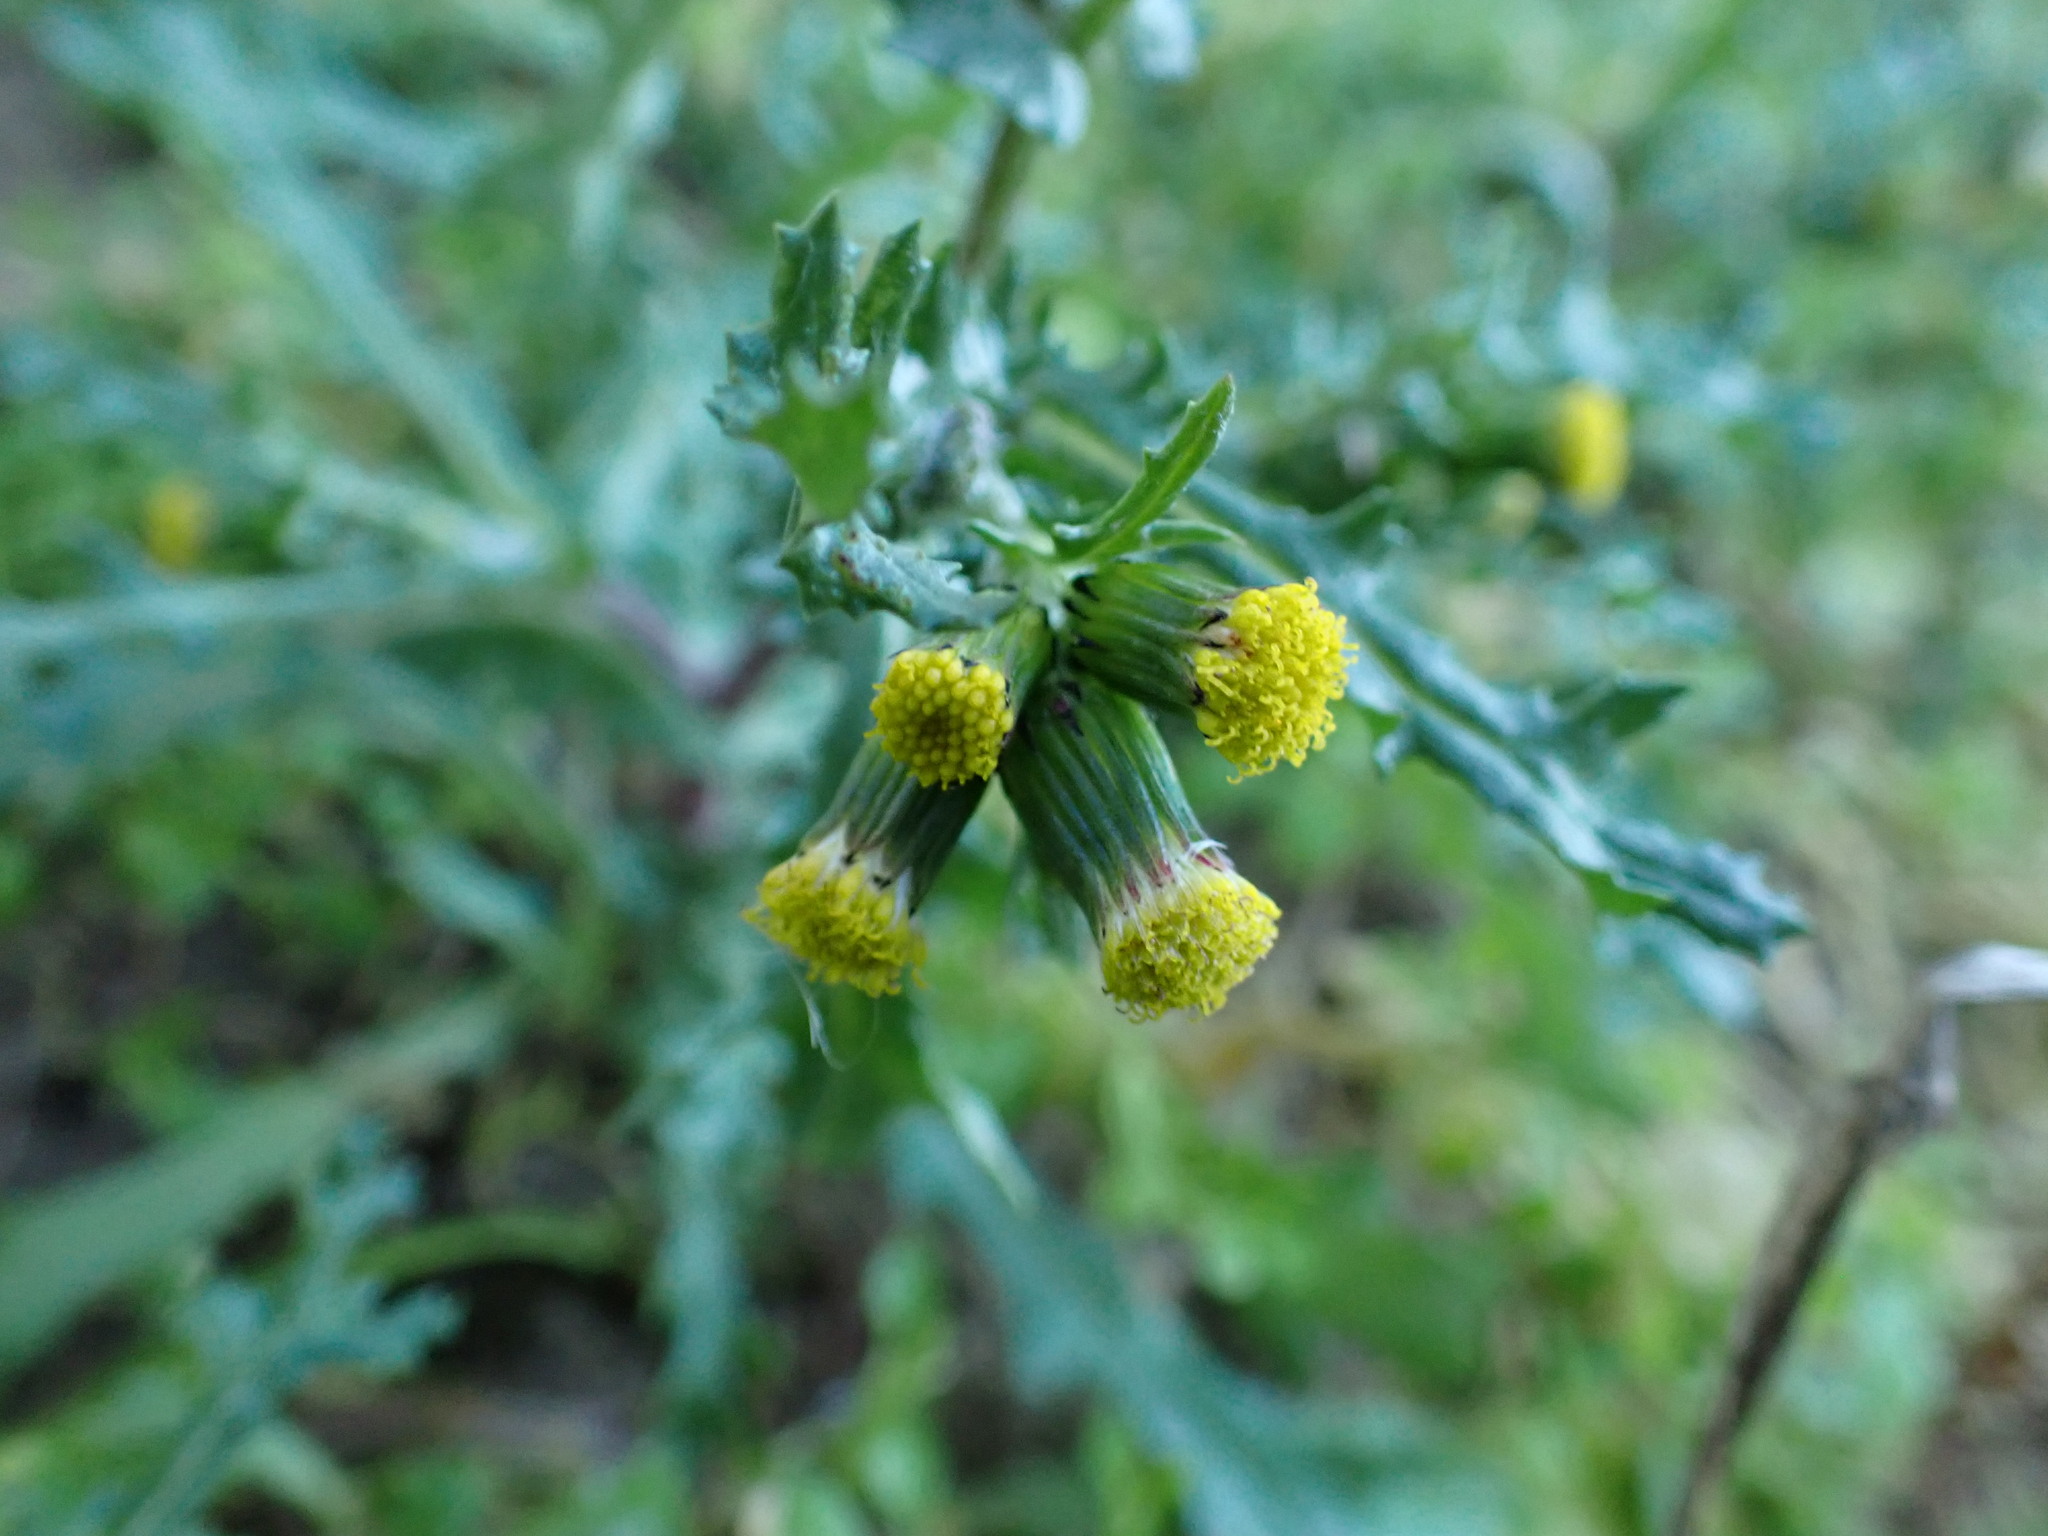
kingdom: Plantae
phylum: Tracheophyta
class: Magnoliopsida
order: Asterales
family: Asteraceae
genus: Senecio
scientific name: Senecio vulgaris
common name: Old-man-in-the-spring
